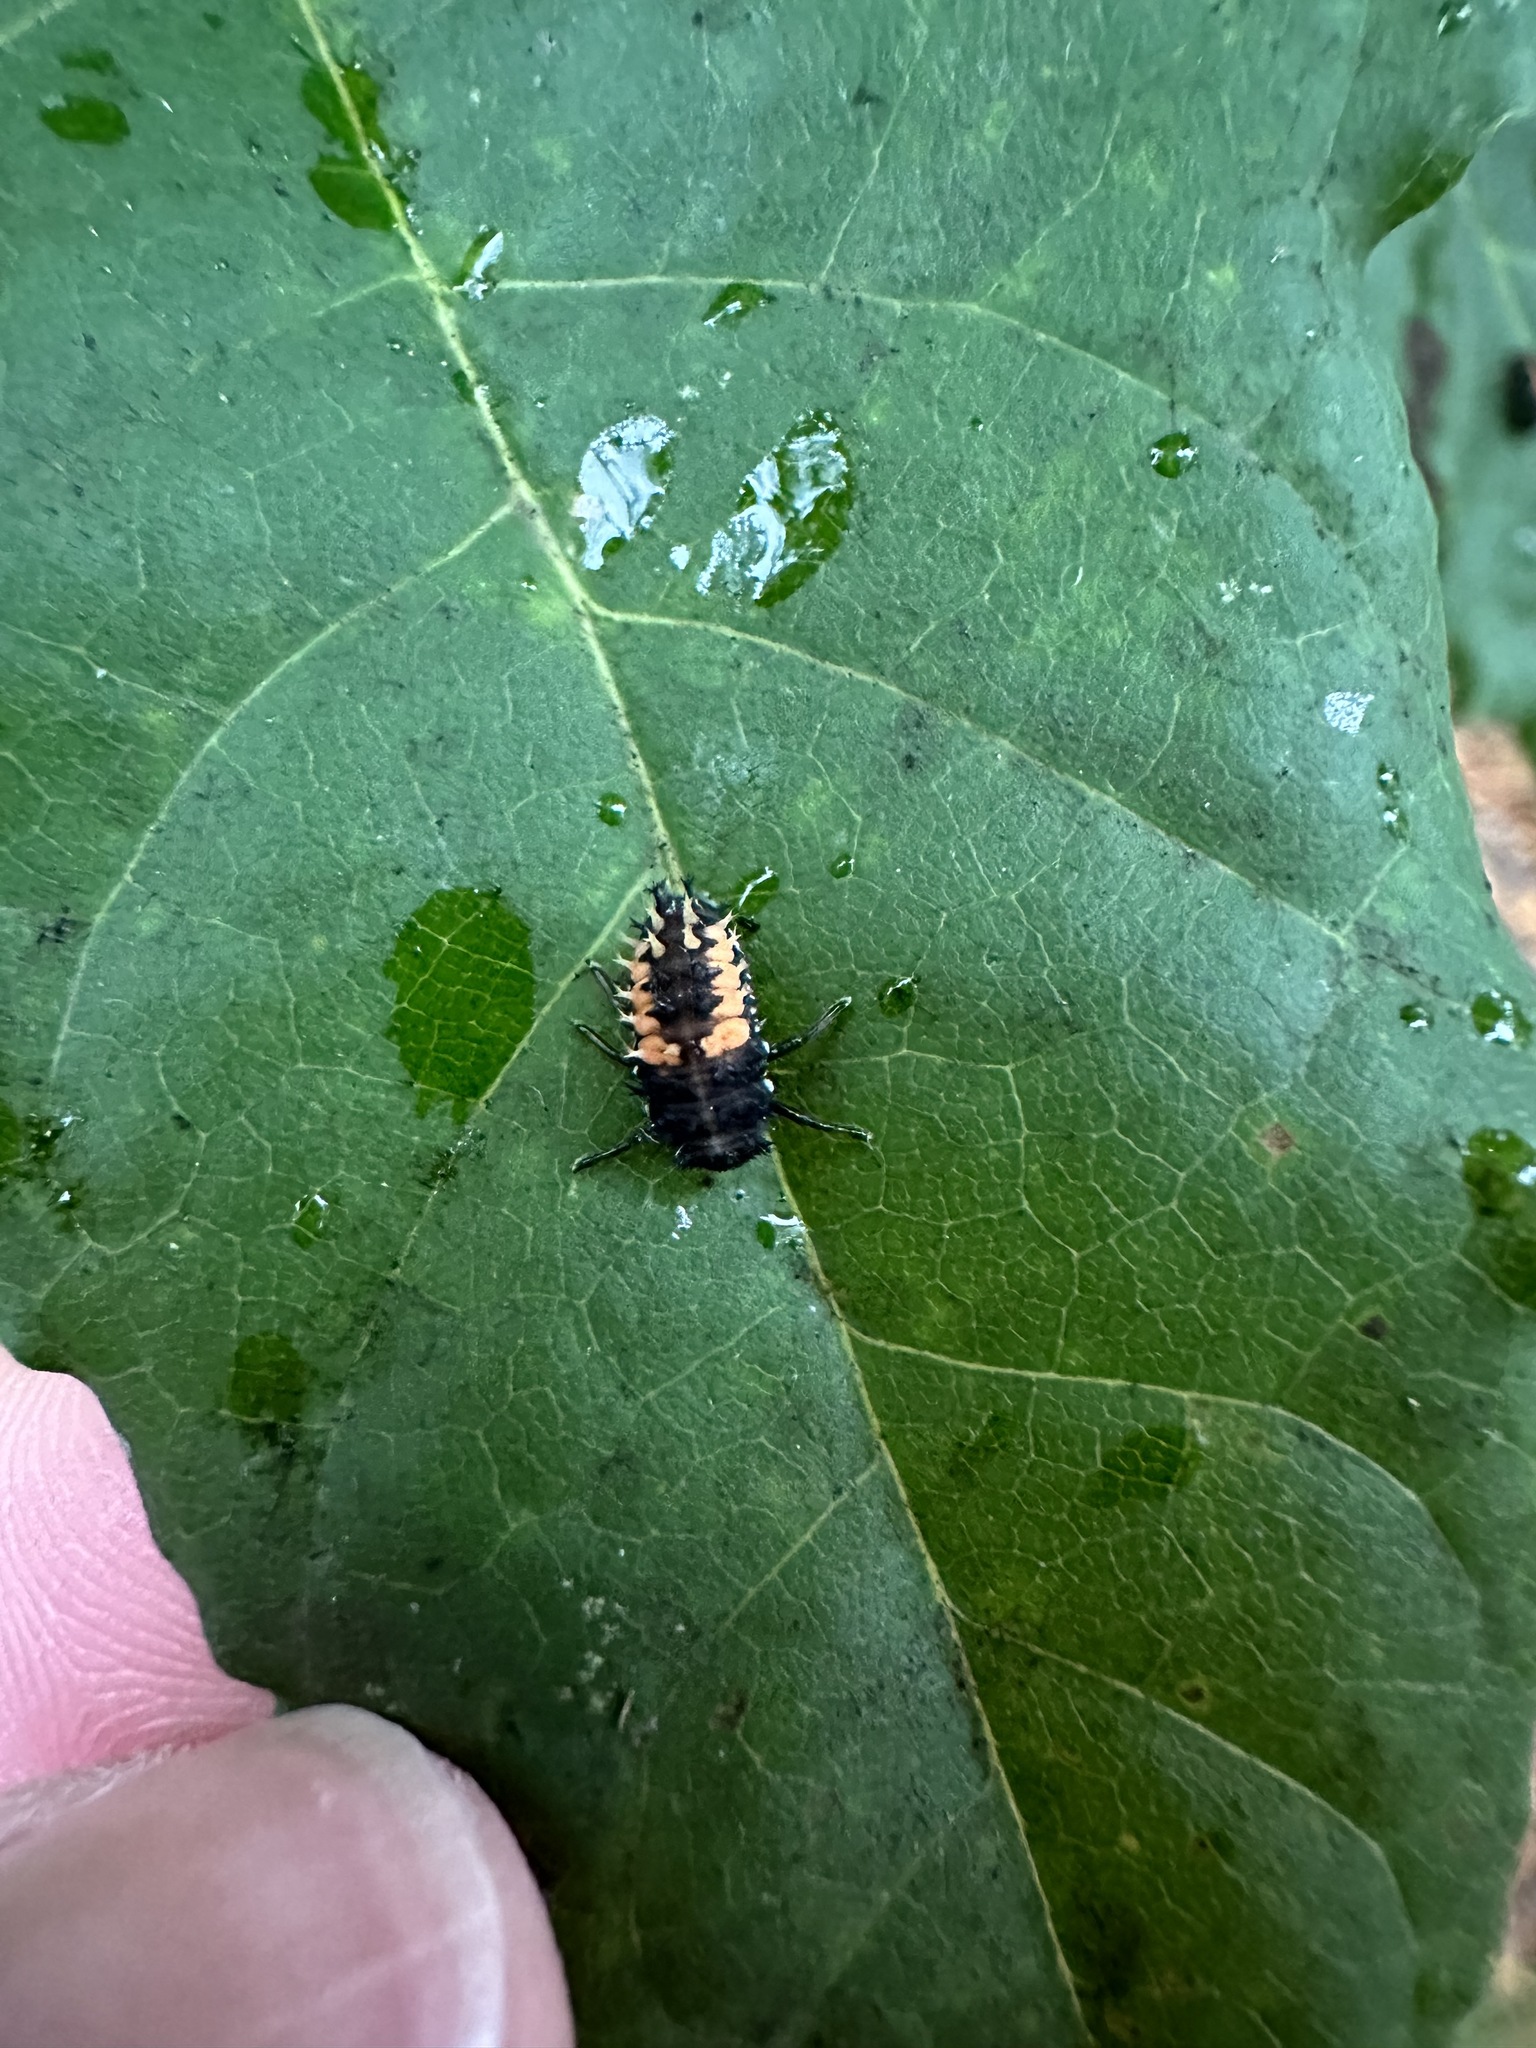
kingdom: Animalia
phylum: Arthropoda
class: Insecta
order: Coleoptera
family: Coccinellidae
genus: Harmonia
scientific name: Harmonia axyridis
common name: Harlequin ladybird
